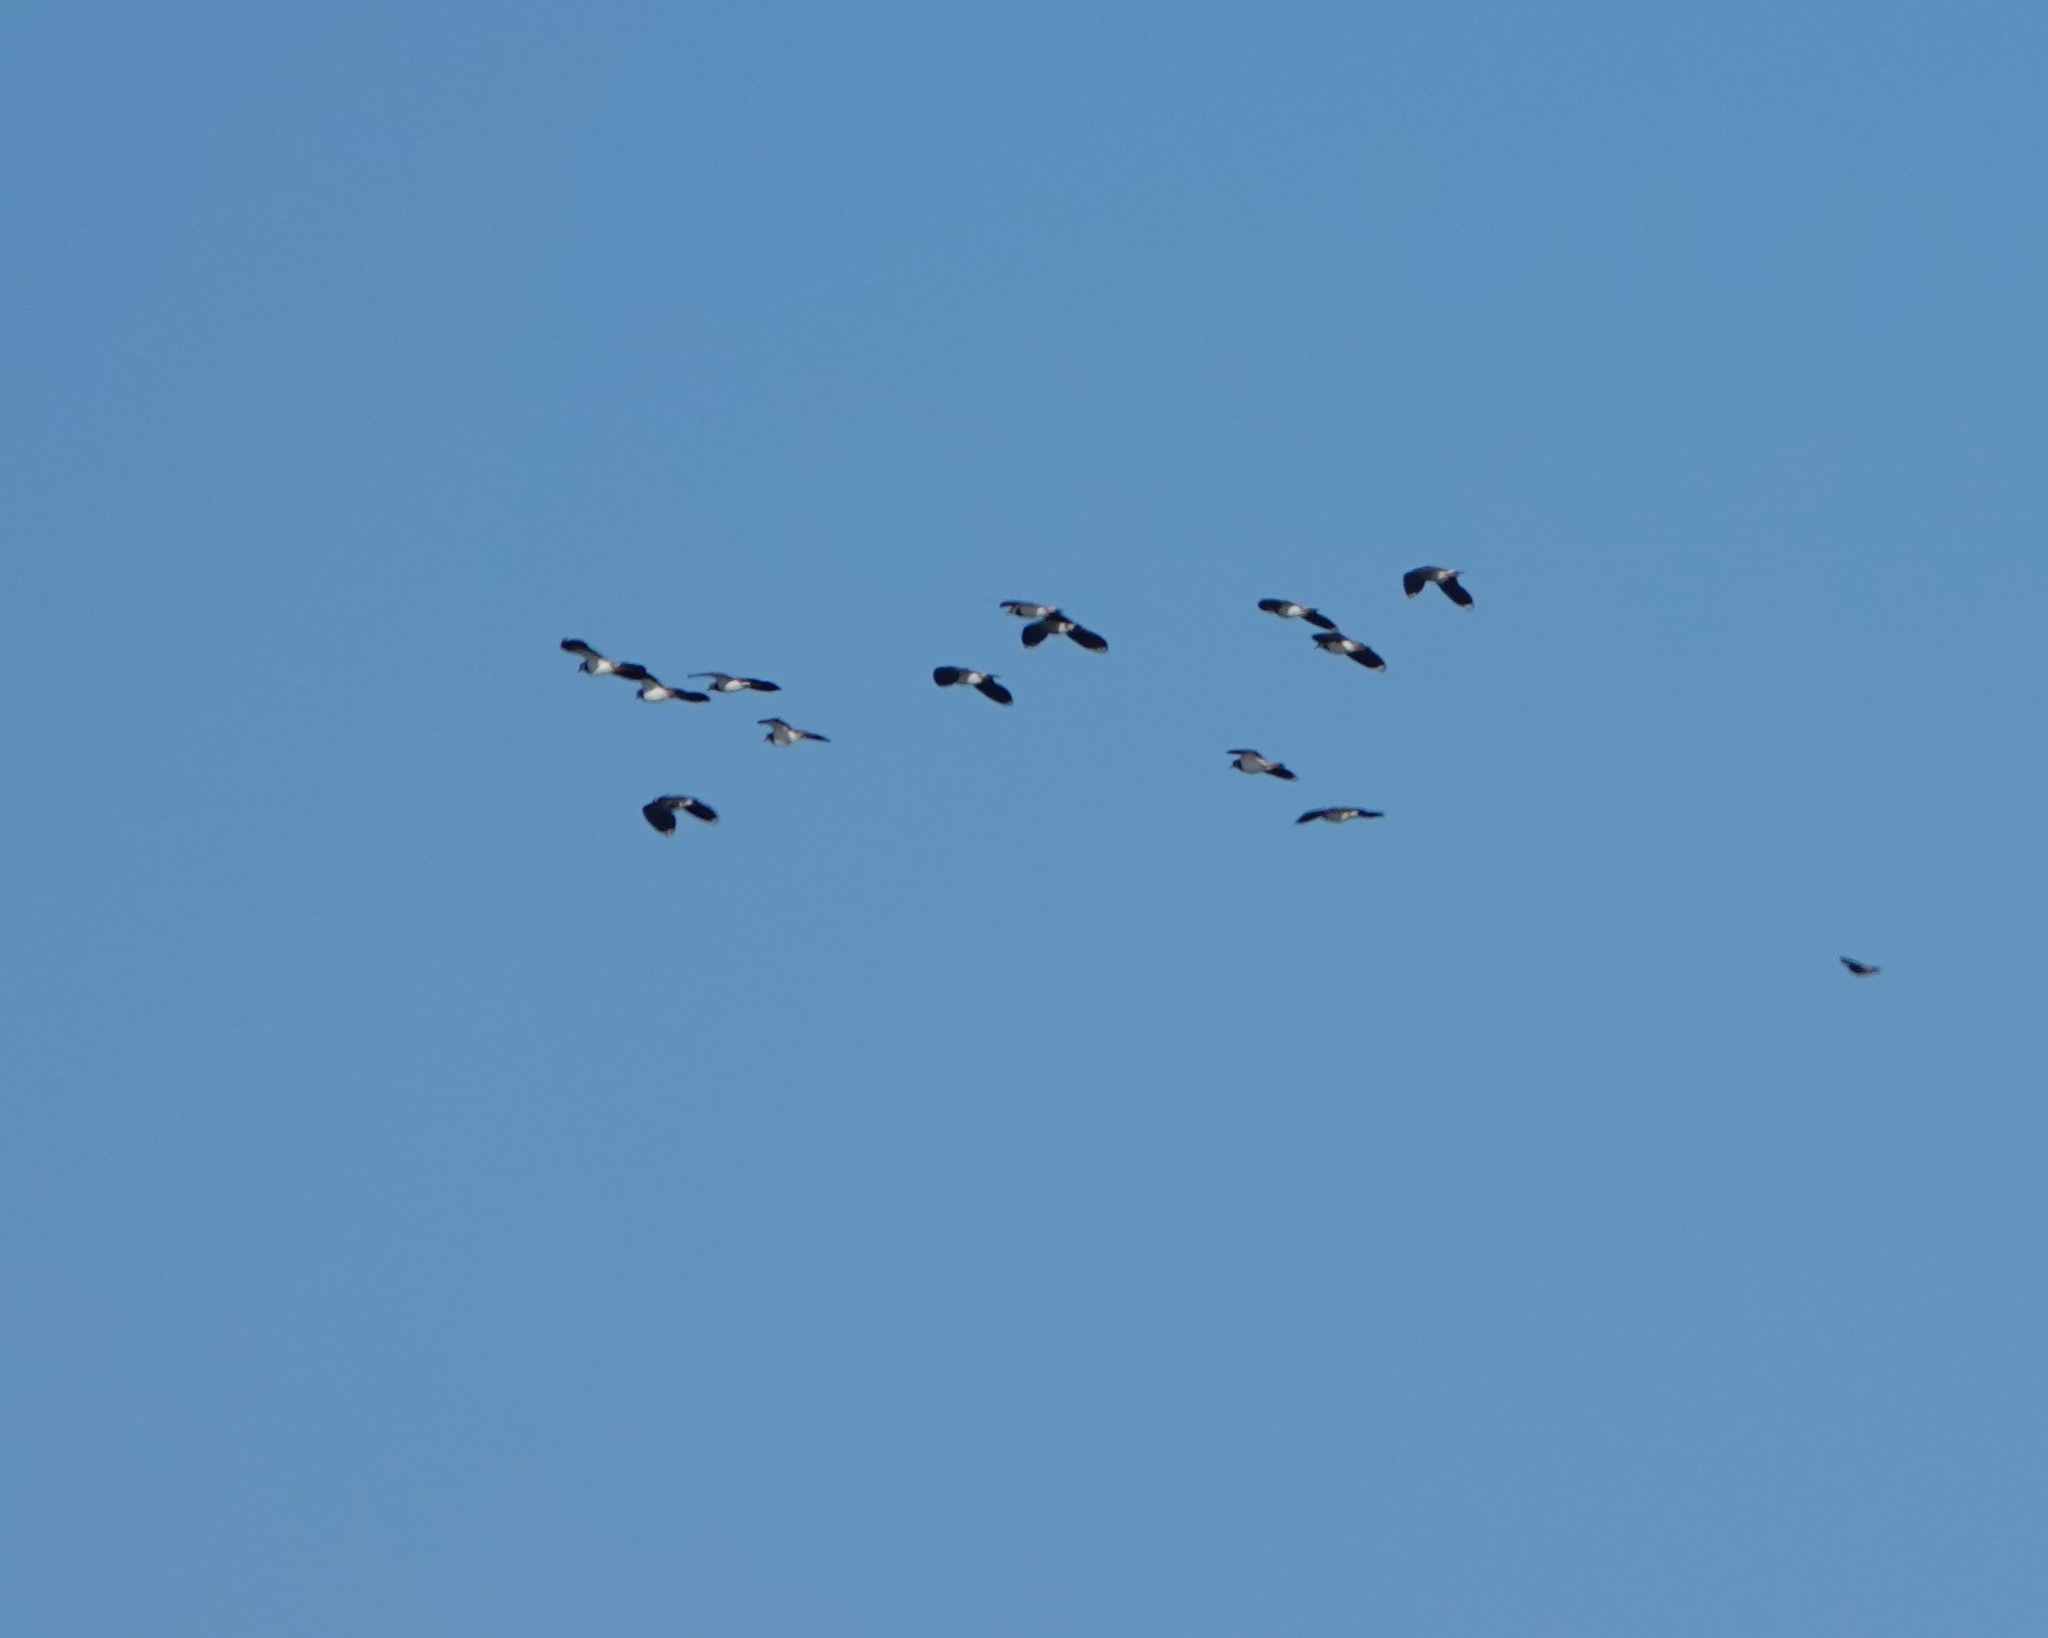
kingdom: Animalia
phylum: Chordata
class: Aves
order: Charadriiformes
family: Charadriidae
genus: Vanellus
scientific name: Vanellus vanellus
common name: Northern lapwing
